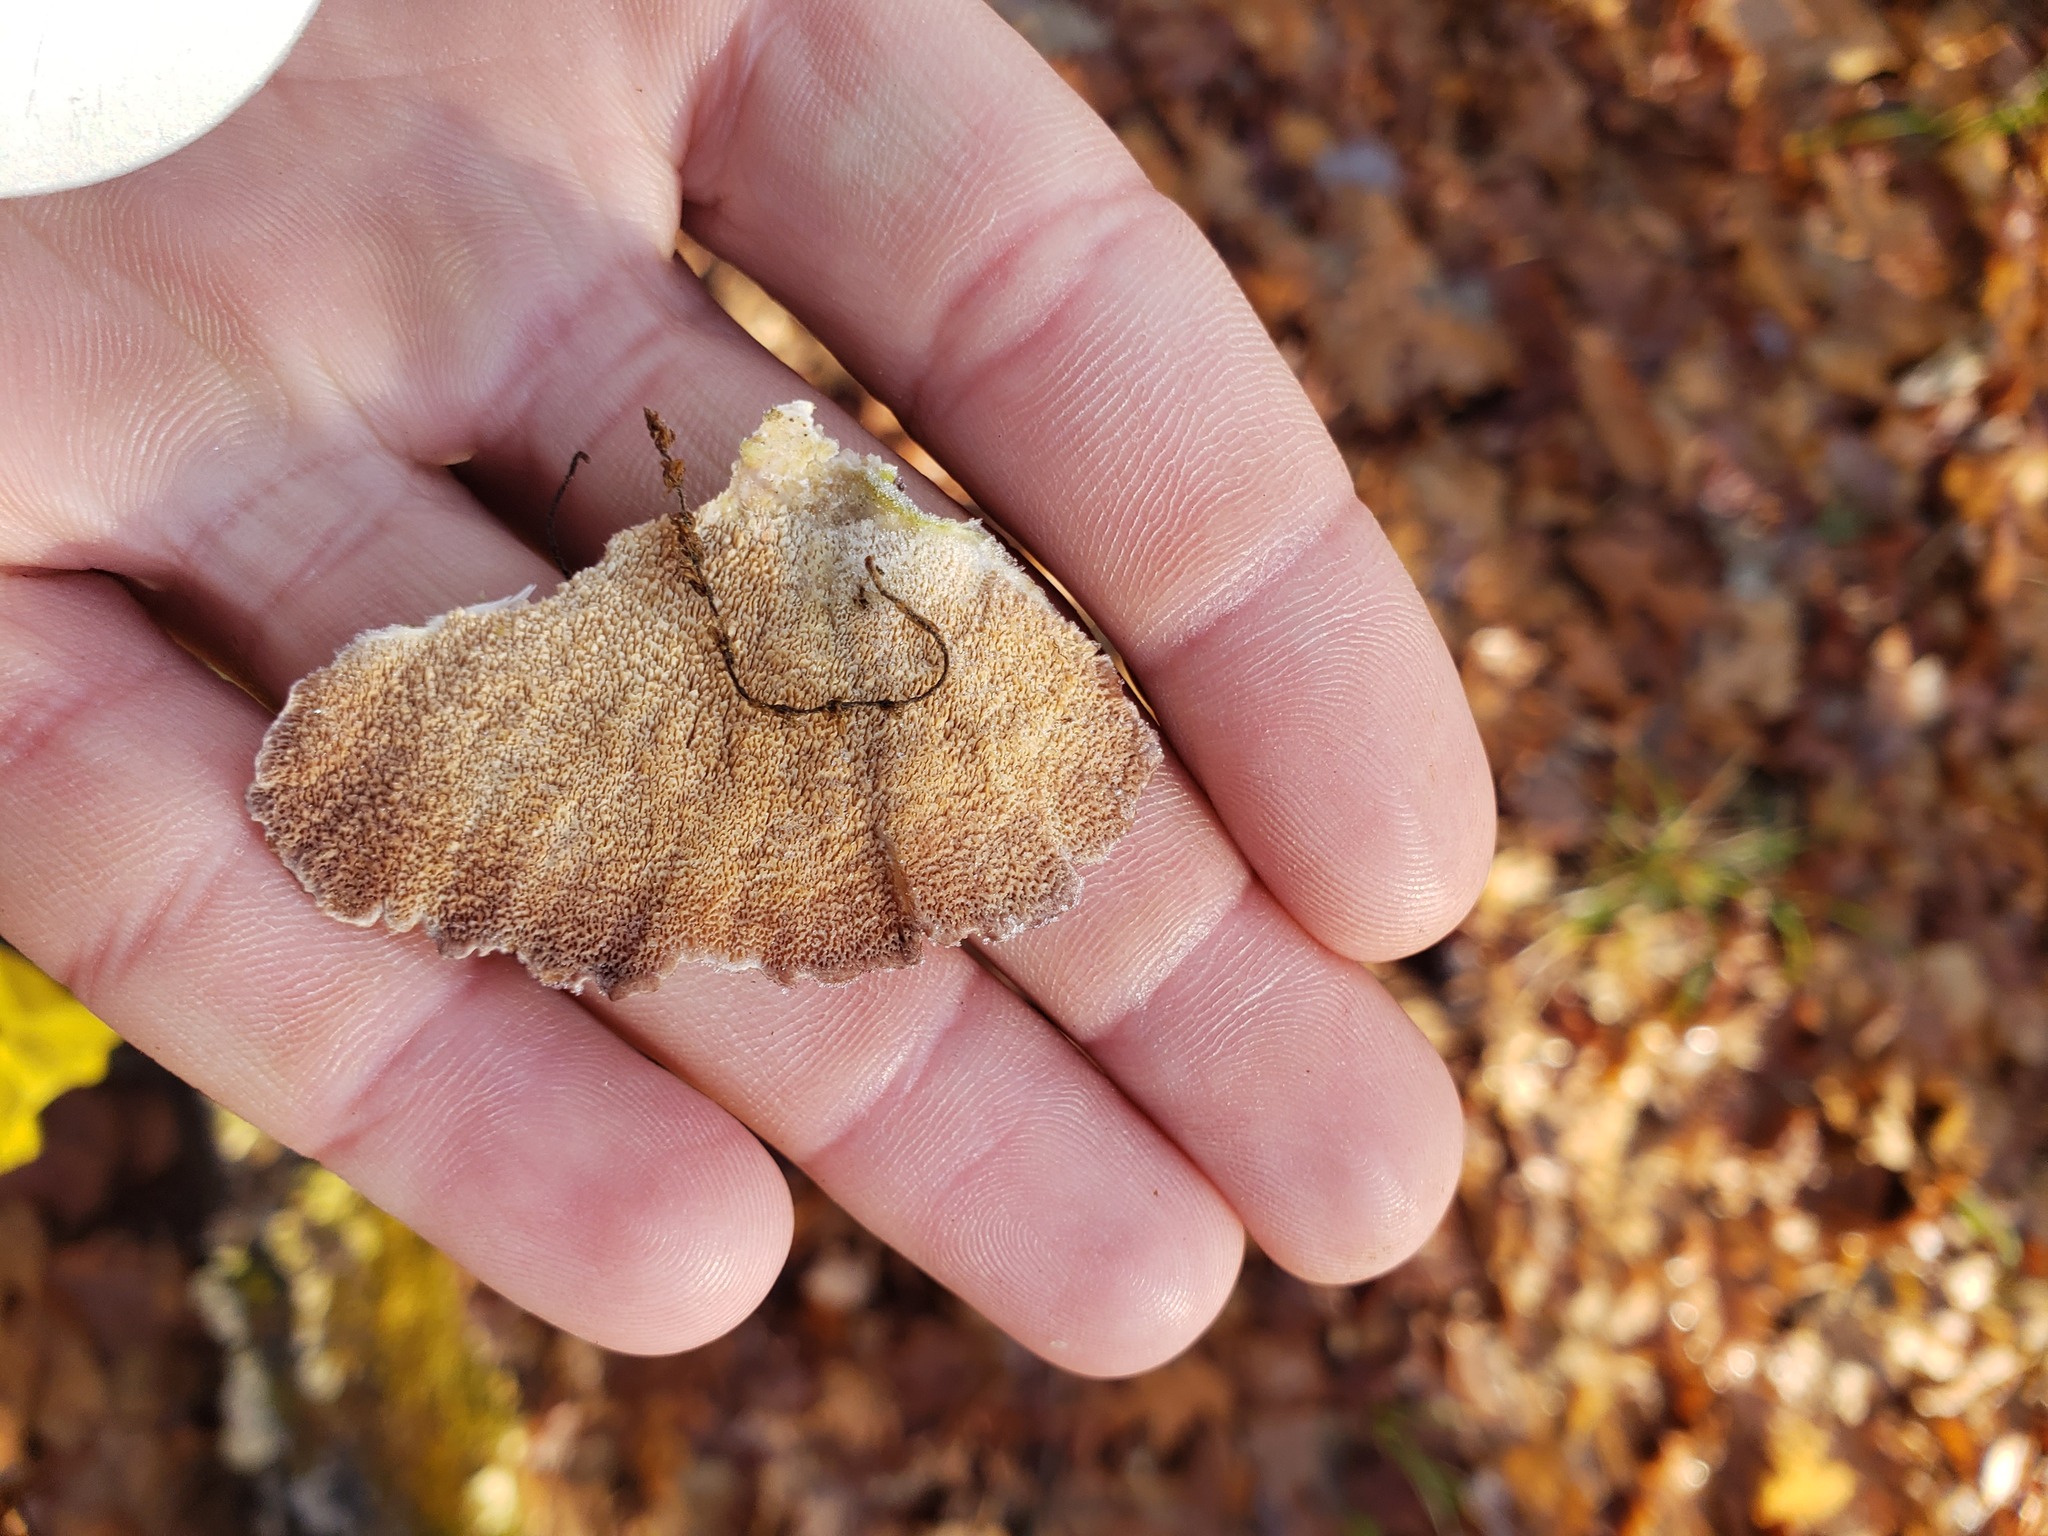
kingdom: Fungi
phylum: Basidiomycota
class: Agaricomycetes
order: Hymenochaetales
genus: Trichaptum
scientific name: Trichaptum biforme
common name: Violet-toothed polypore
